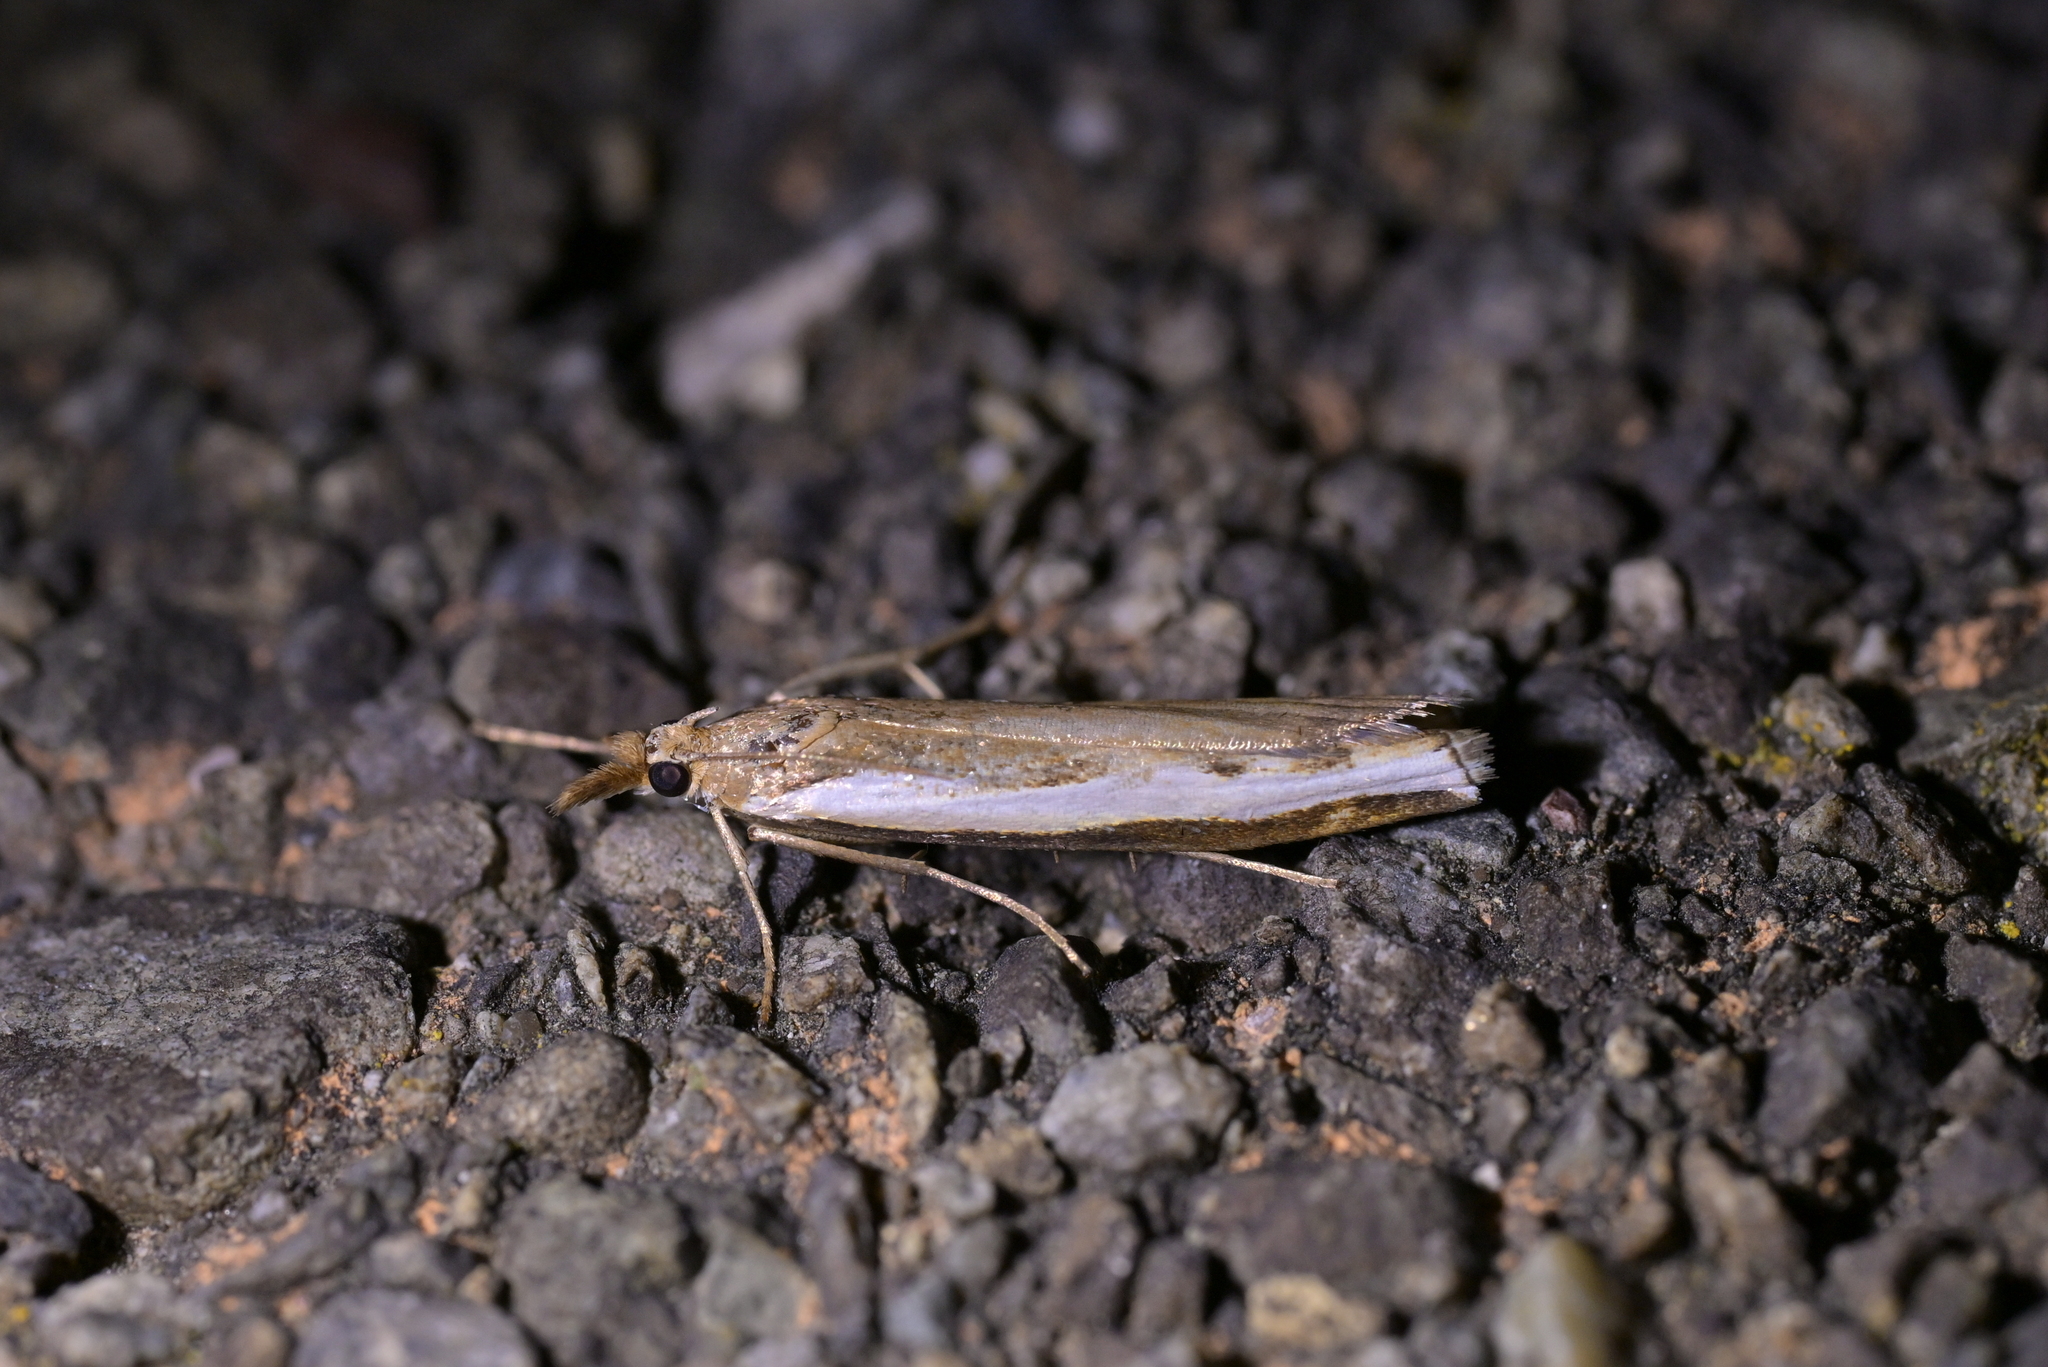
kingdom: Animalia
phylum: Arthropoda
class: Insecta
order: Lepidoptera
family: Crambidae
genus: Orocrambus
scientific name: Orocrambus flexuosellus
